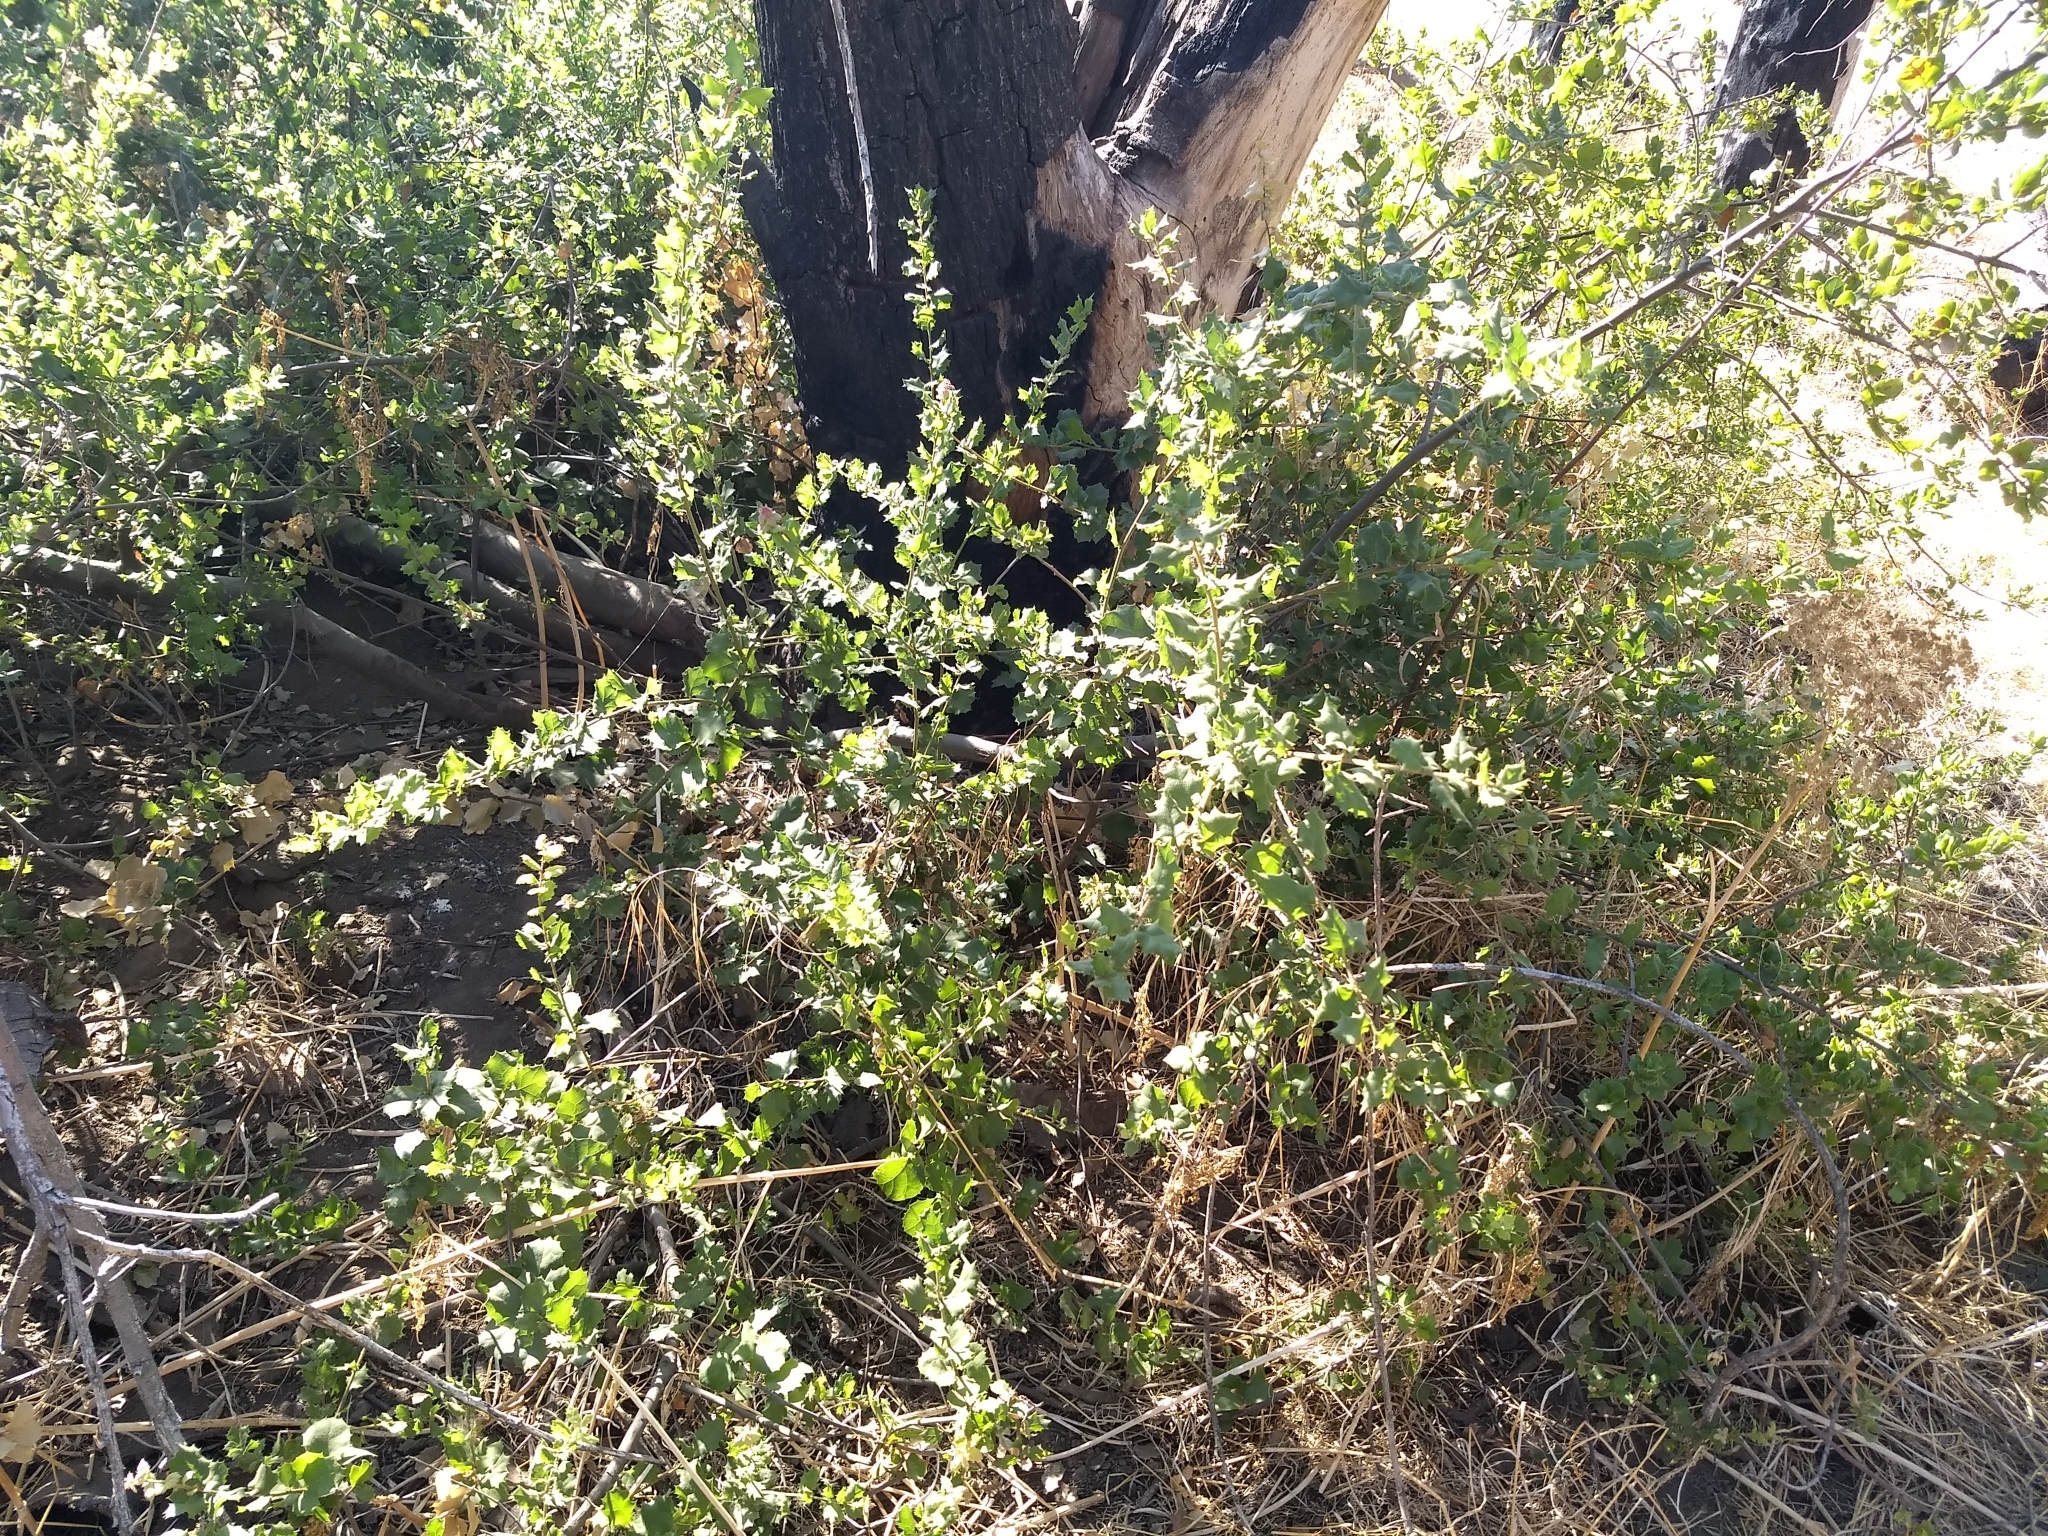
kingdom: Plantae
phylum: Tracheophyta
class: Magnoliopsida
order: Fagales
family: Fagaceae
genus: Quercus
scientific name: Quercus agrifolia
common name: California live oak
